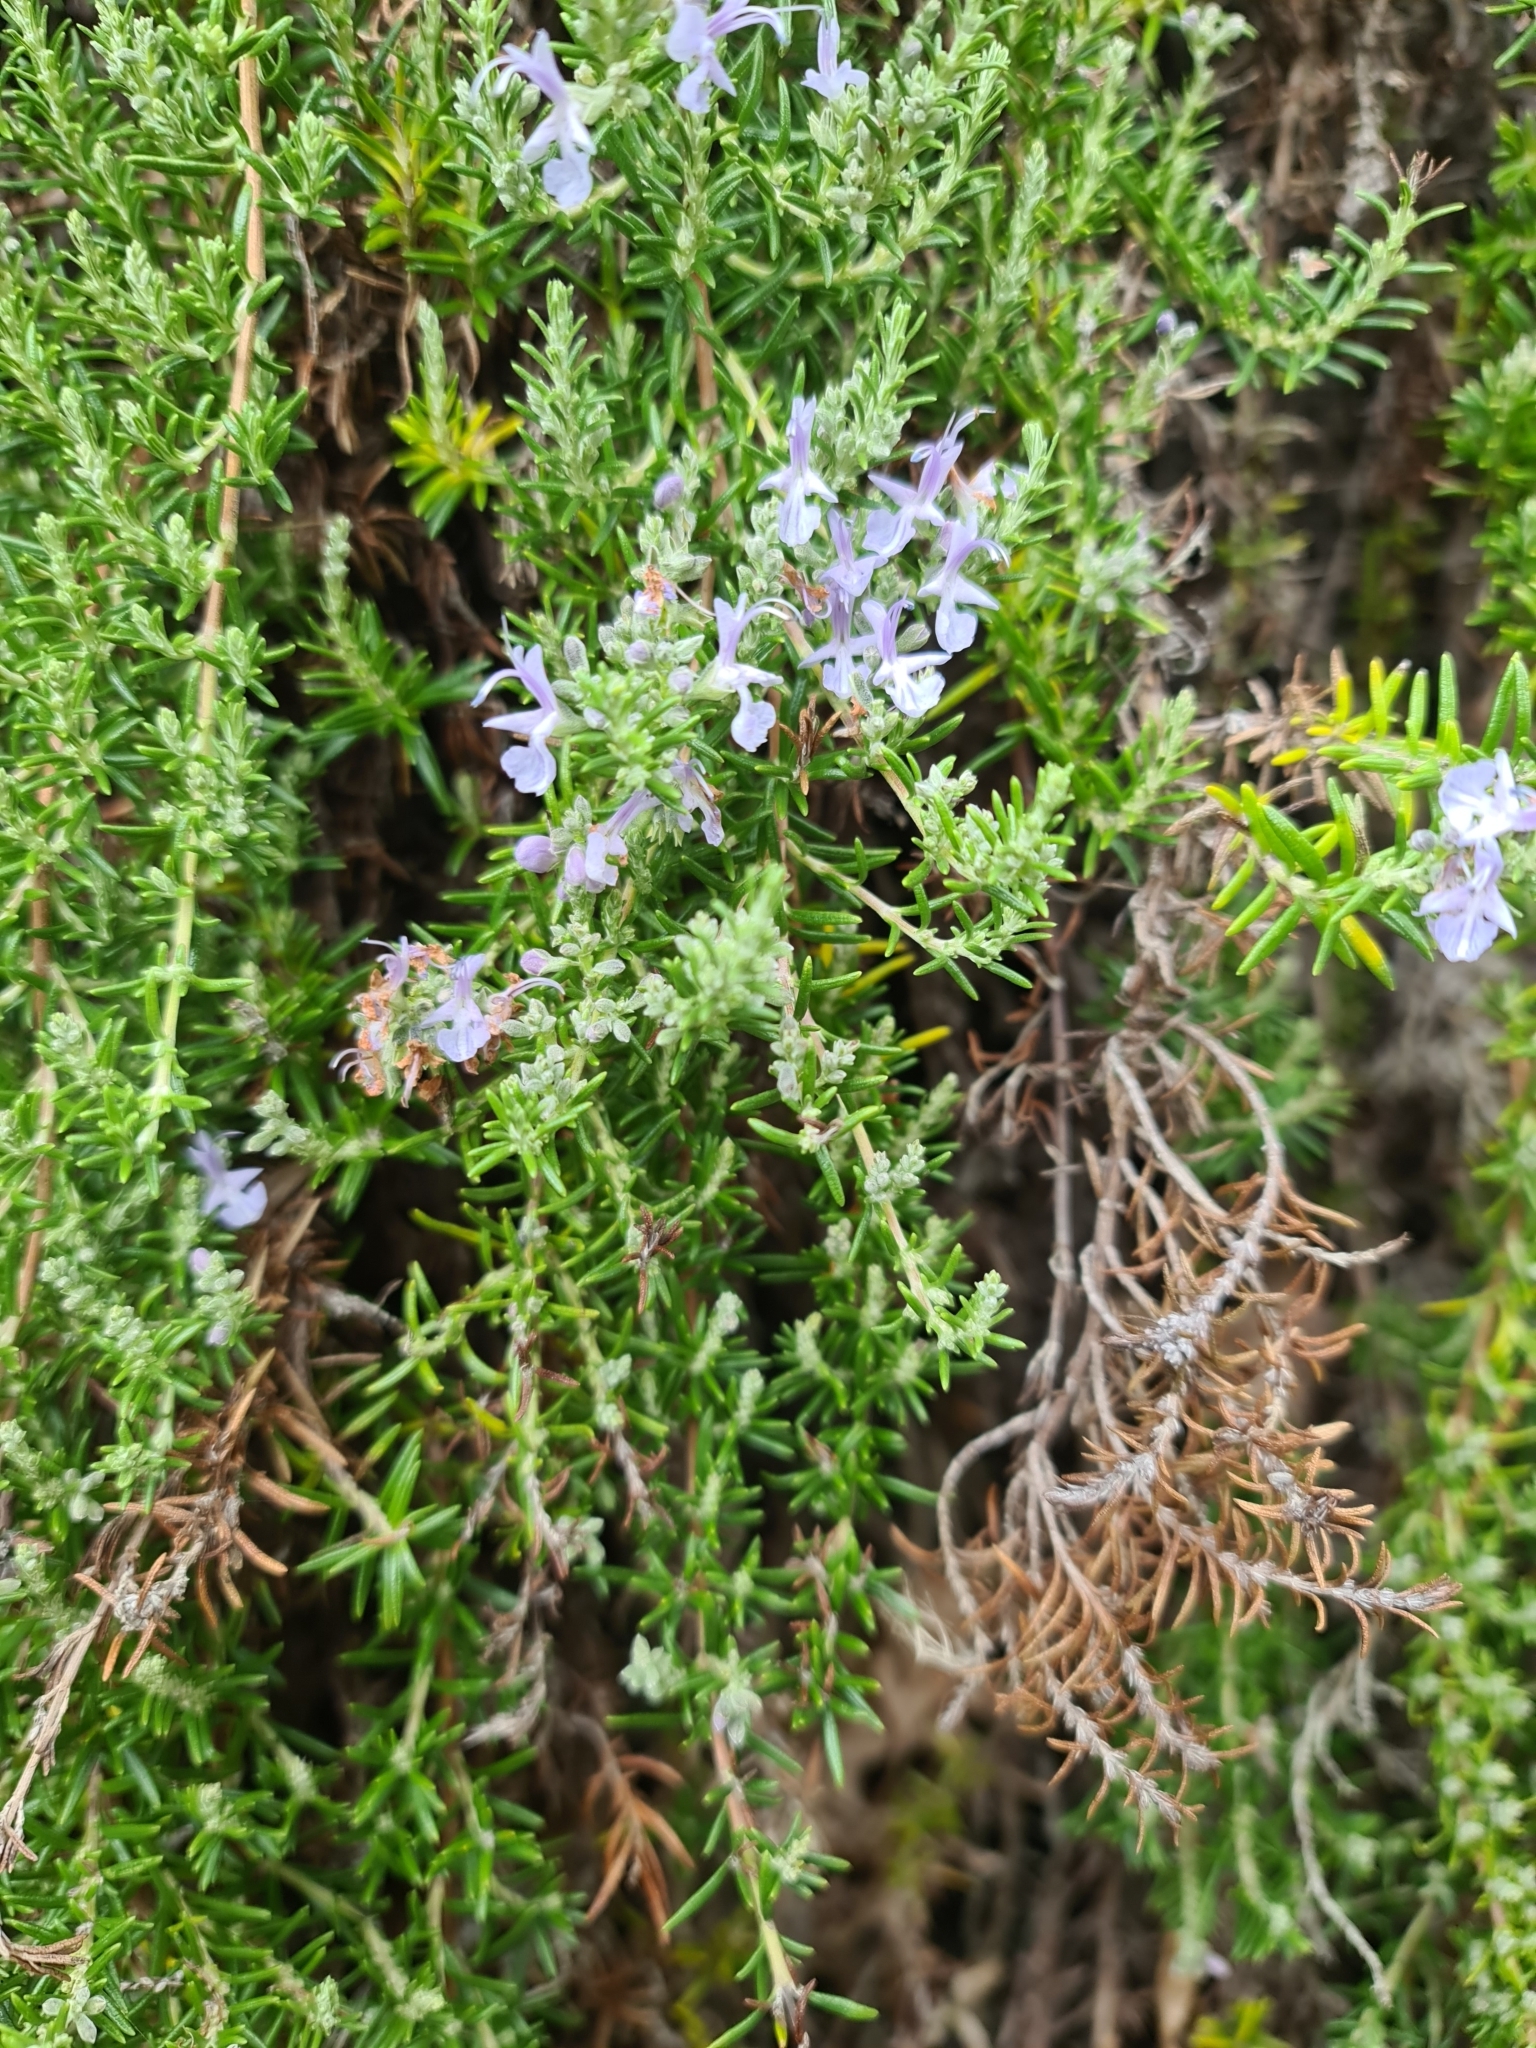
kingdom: Plantae
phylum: Tracheophyta
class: Magnoliopsida
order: Lamiales
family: Lamiaceae
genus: Salvia
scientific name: Salvia rosmarinus
